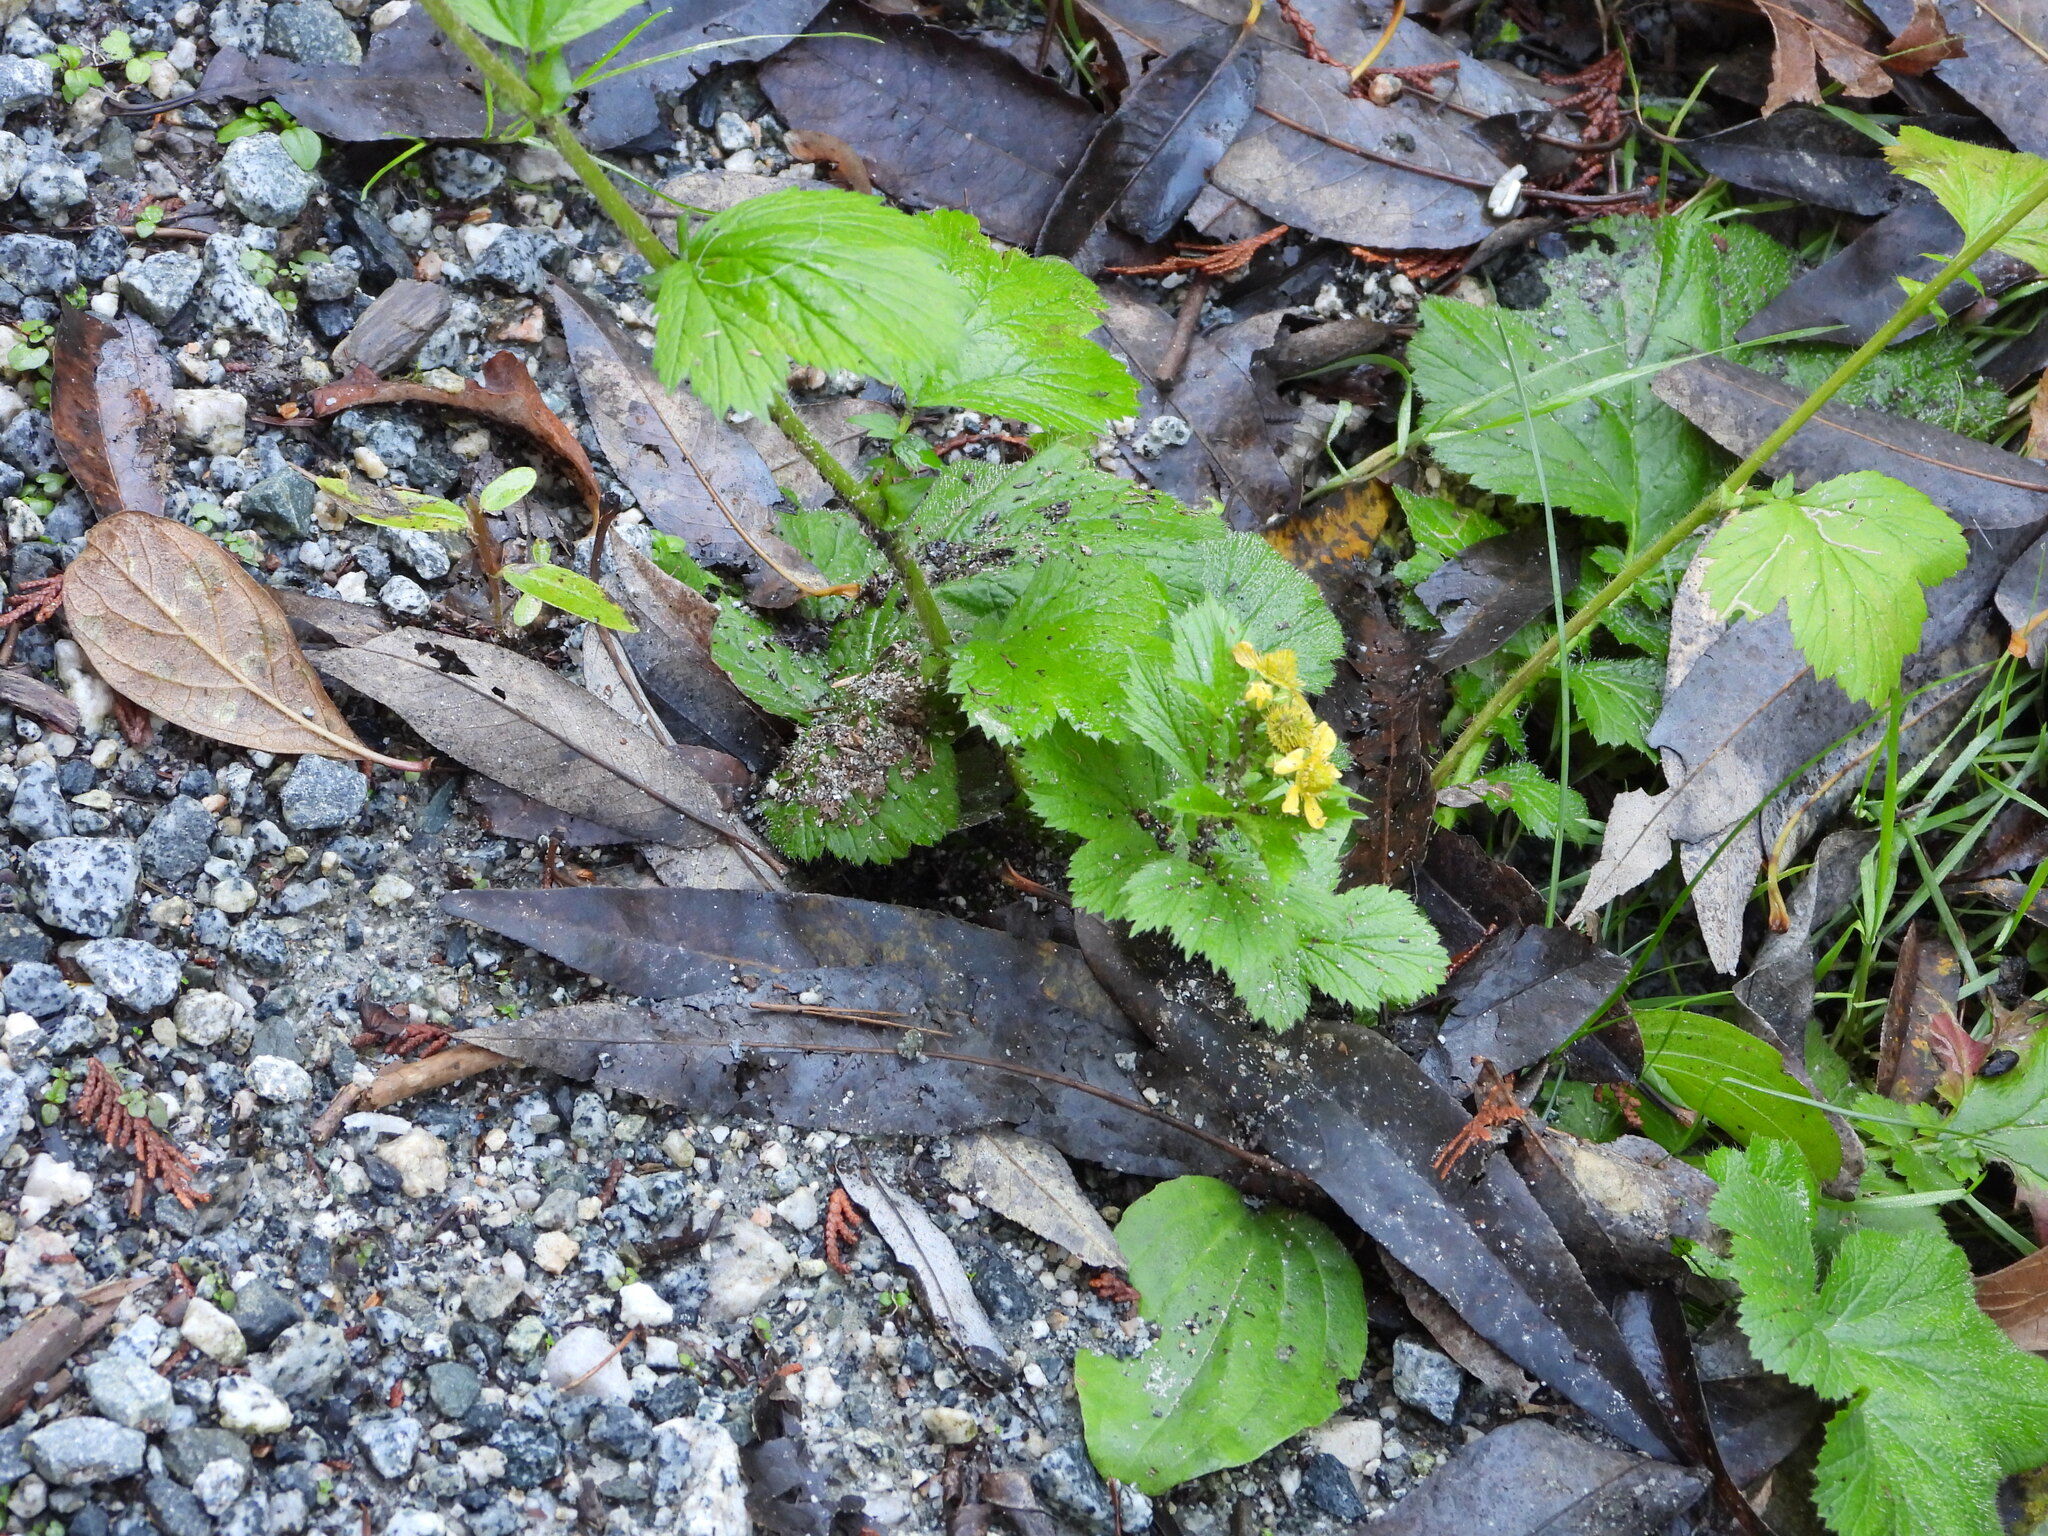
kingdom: Plantae
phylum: Tracheophyta
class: Magnoliopsida
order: Rosales
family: Rosaceae
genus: Geum
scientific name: Geum macrophyllum
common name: Large-leaved avens
